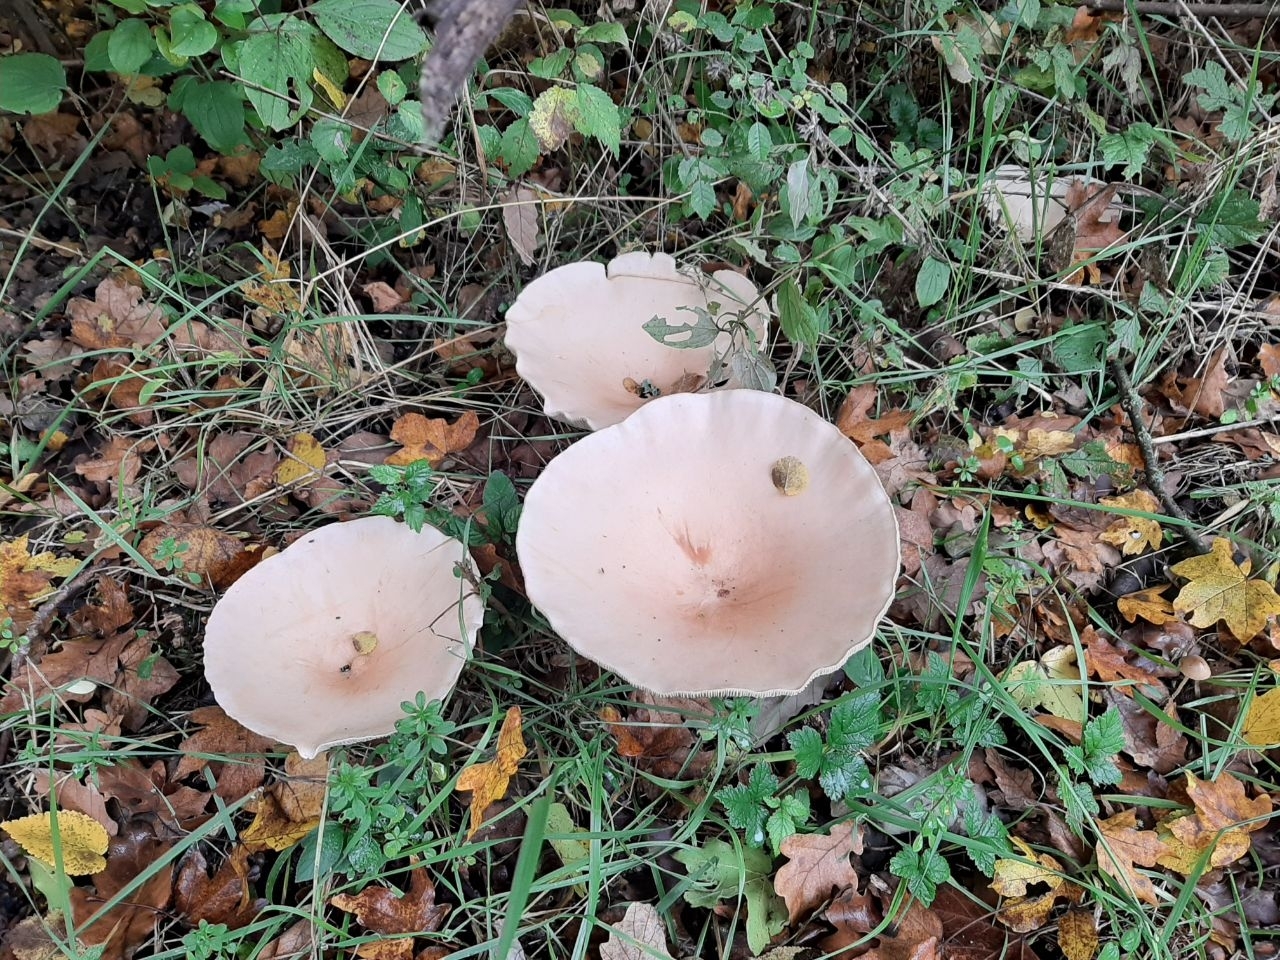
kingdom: Fungi
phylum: Basidiomycota
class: Agaricomycetes
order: Agaricales
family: Tricholomataceae
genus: Infundibulicybe
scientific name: Infundibulicybe geotropa
